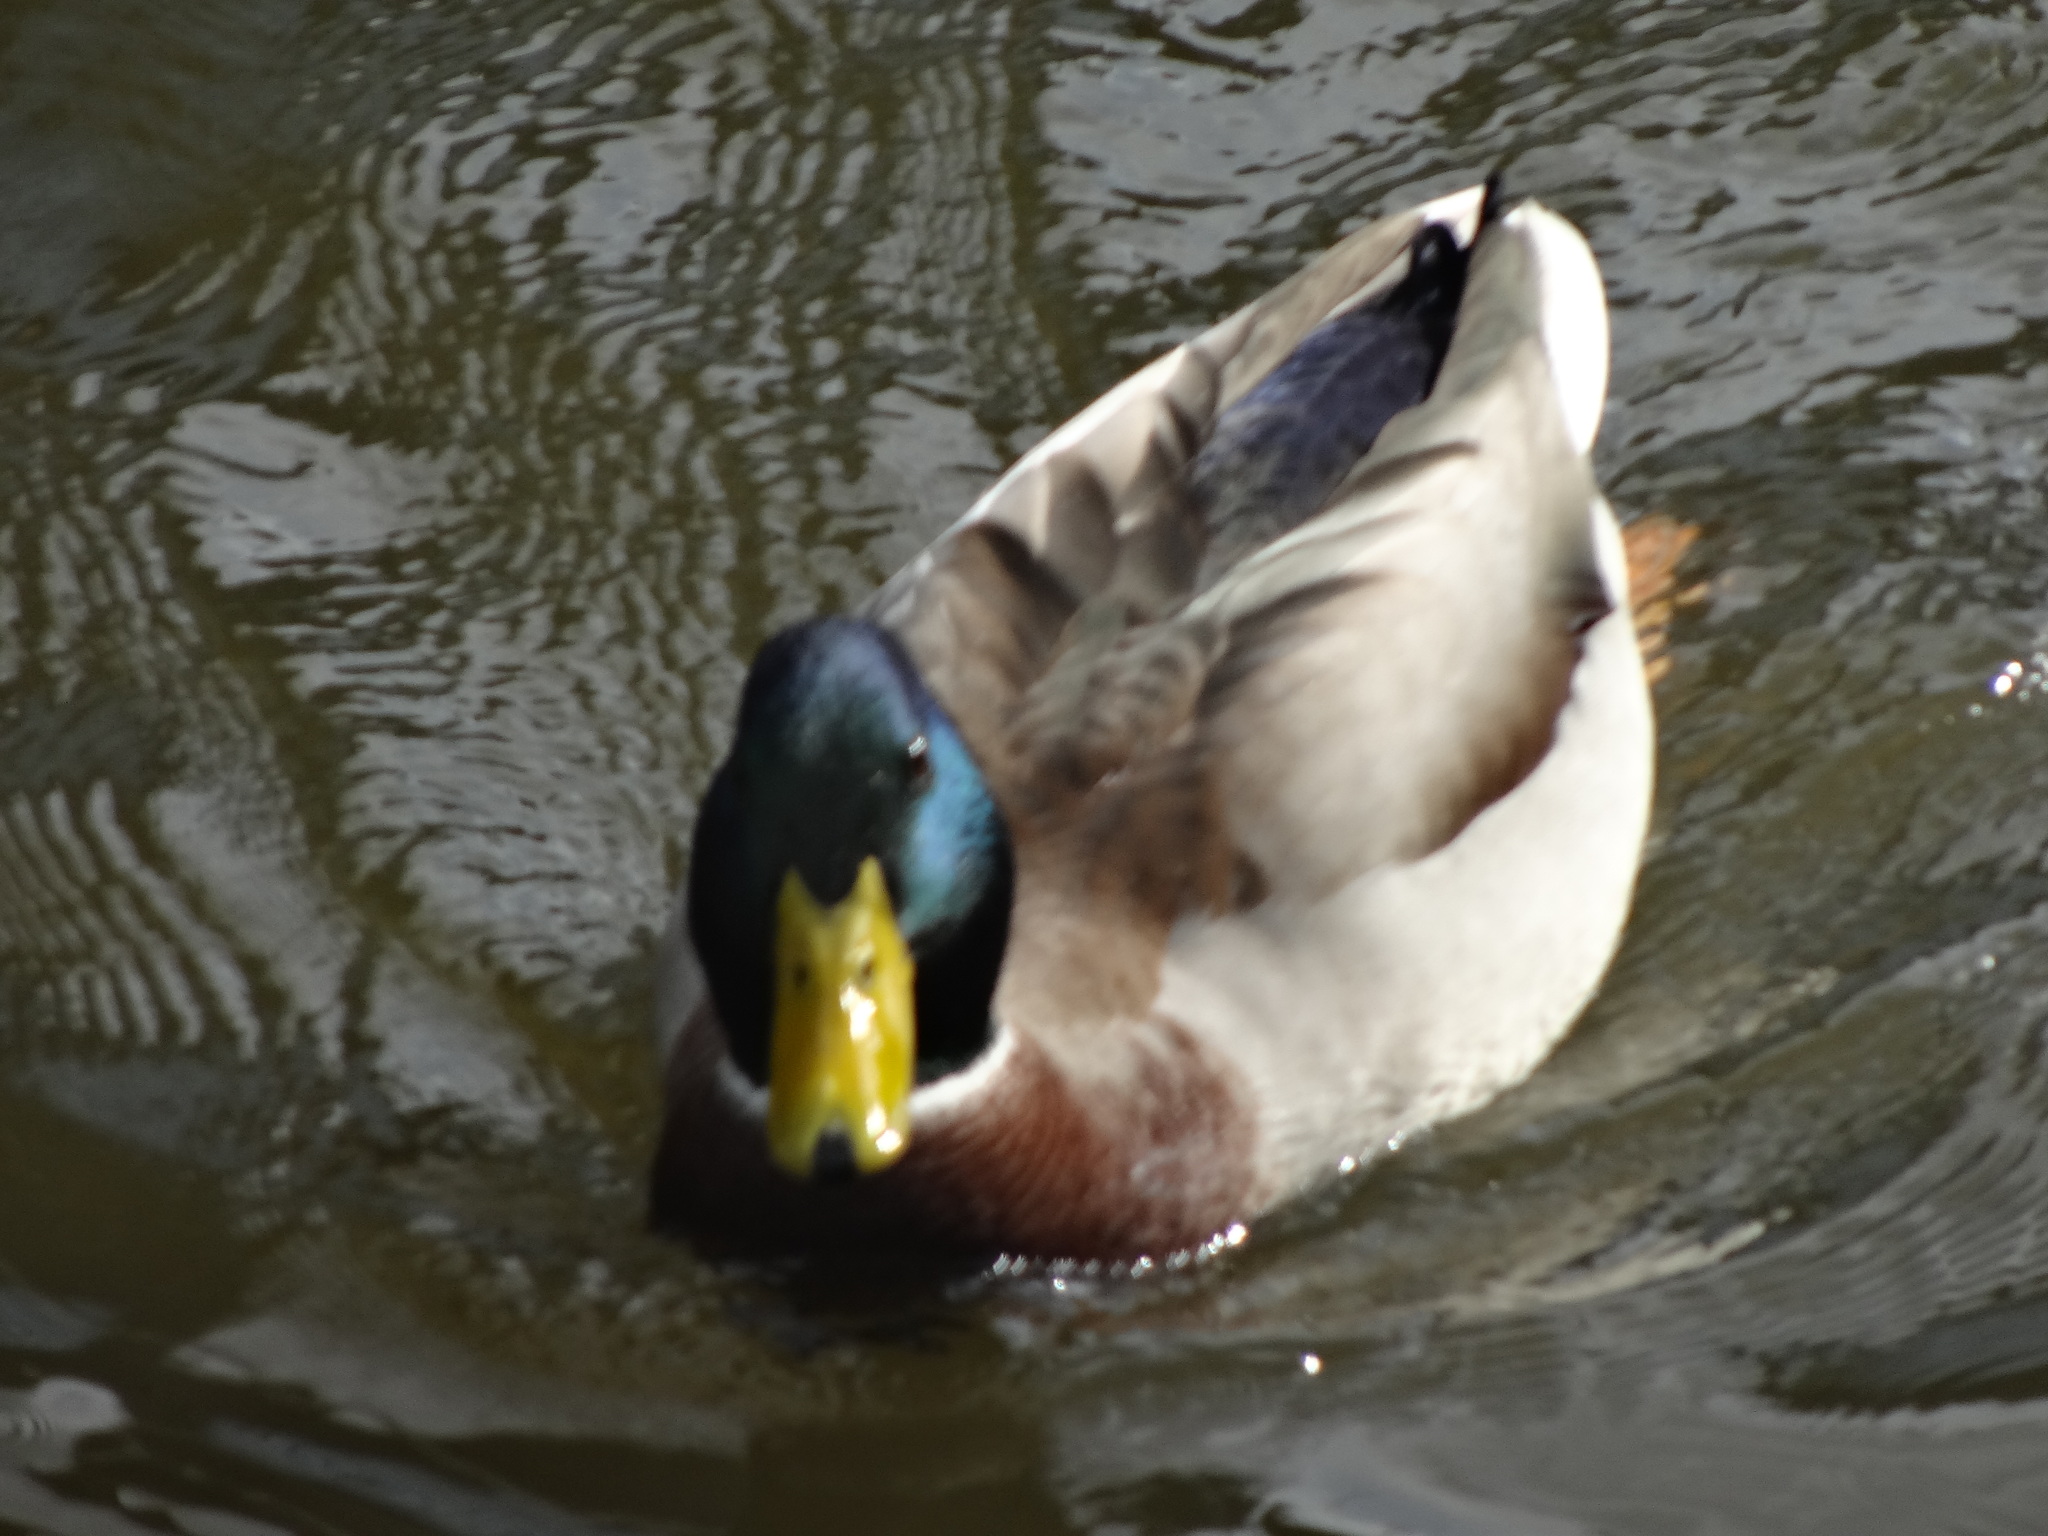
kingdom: Animalia
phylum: Chordata
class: Aves
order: Anseriformes
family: Anatidae
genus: Anas
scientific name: Anas platyrhynchos
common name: Mallard
